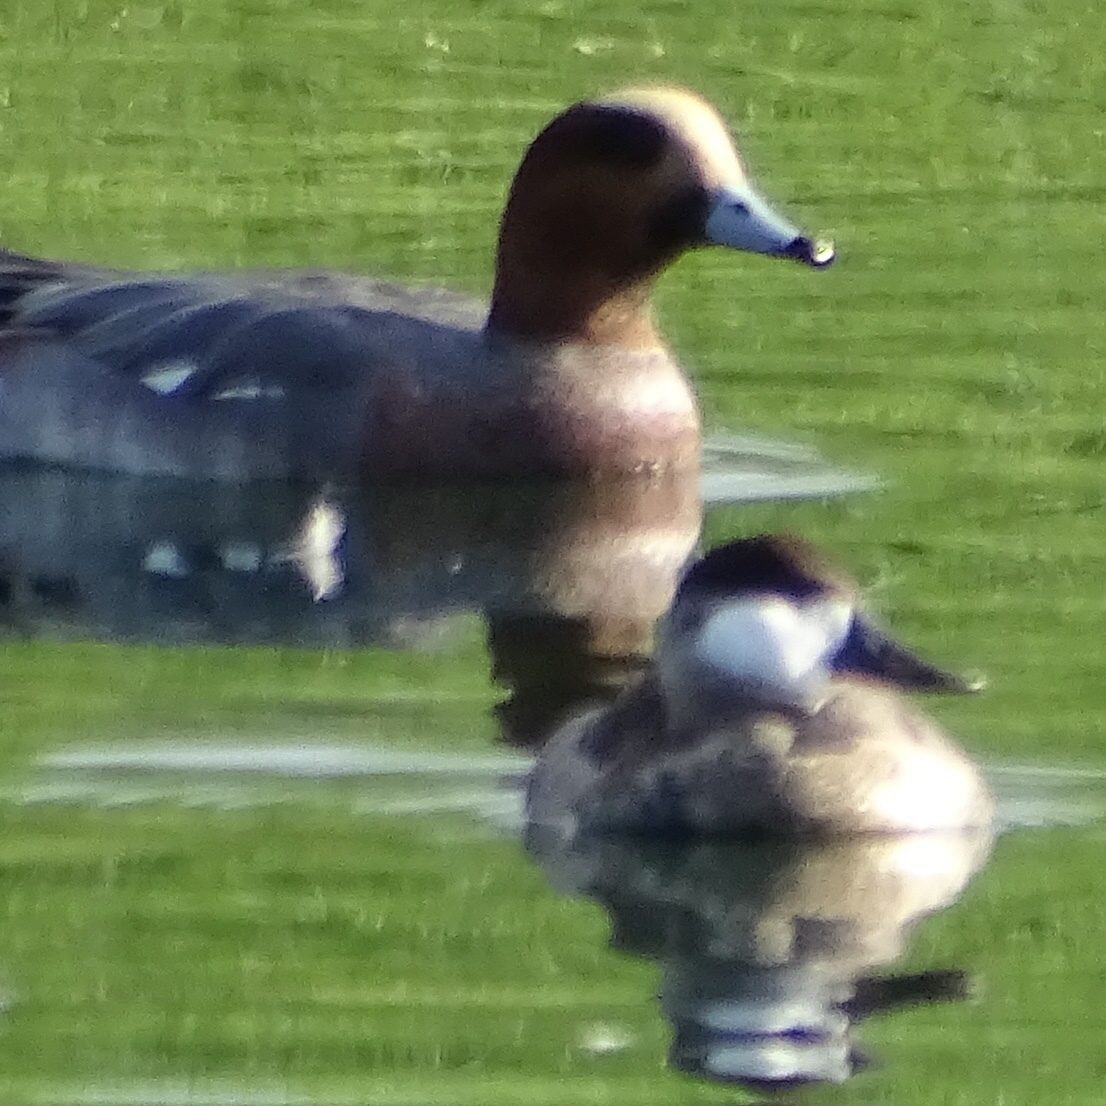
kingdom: Animalia
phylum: Chordata
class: Aves
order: Anseriformes
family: Anatidae
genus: Mareca
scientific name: Mareca penelope
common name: Eurasian wigeon
